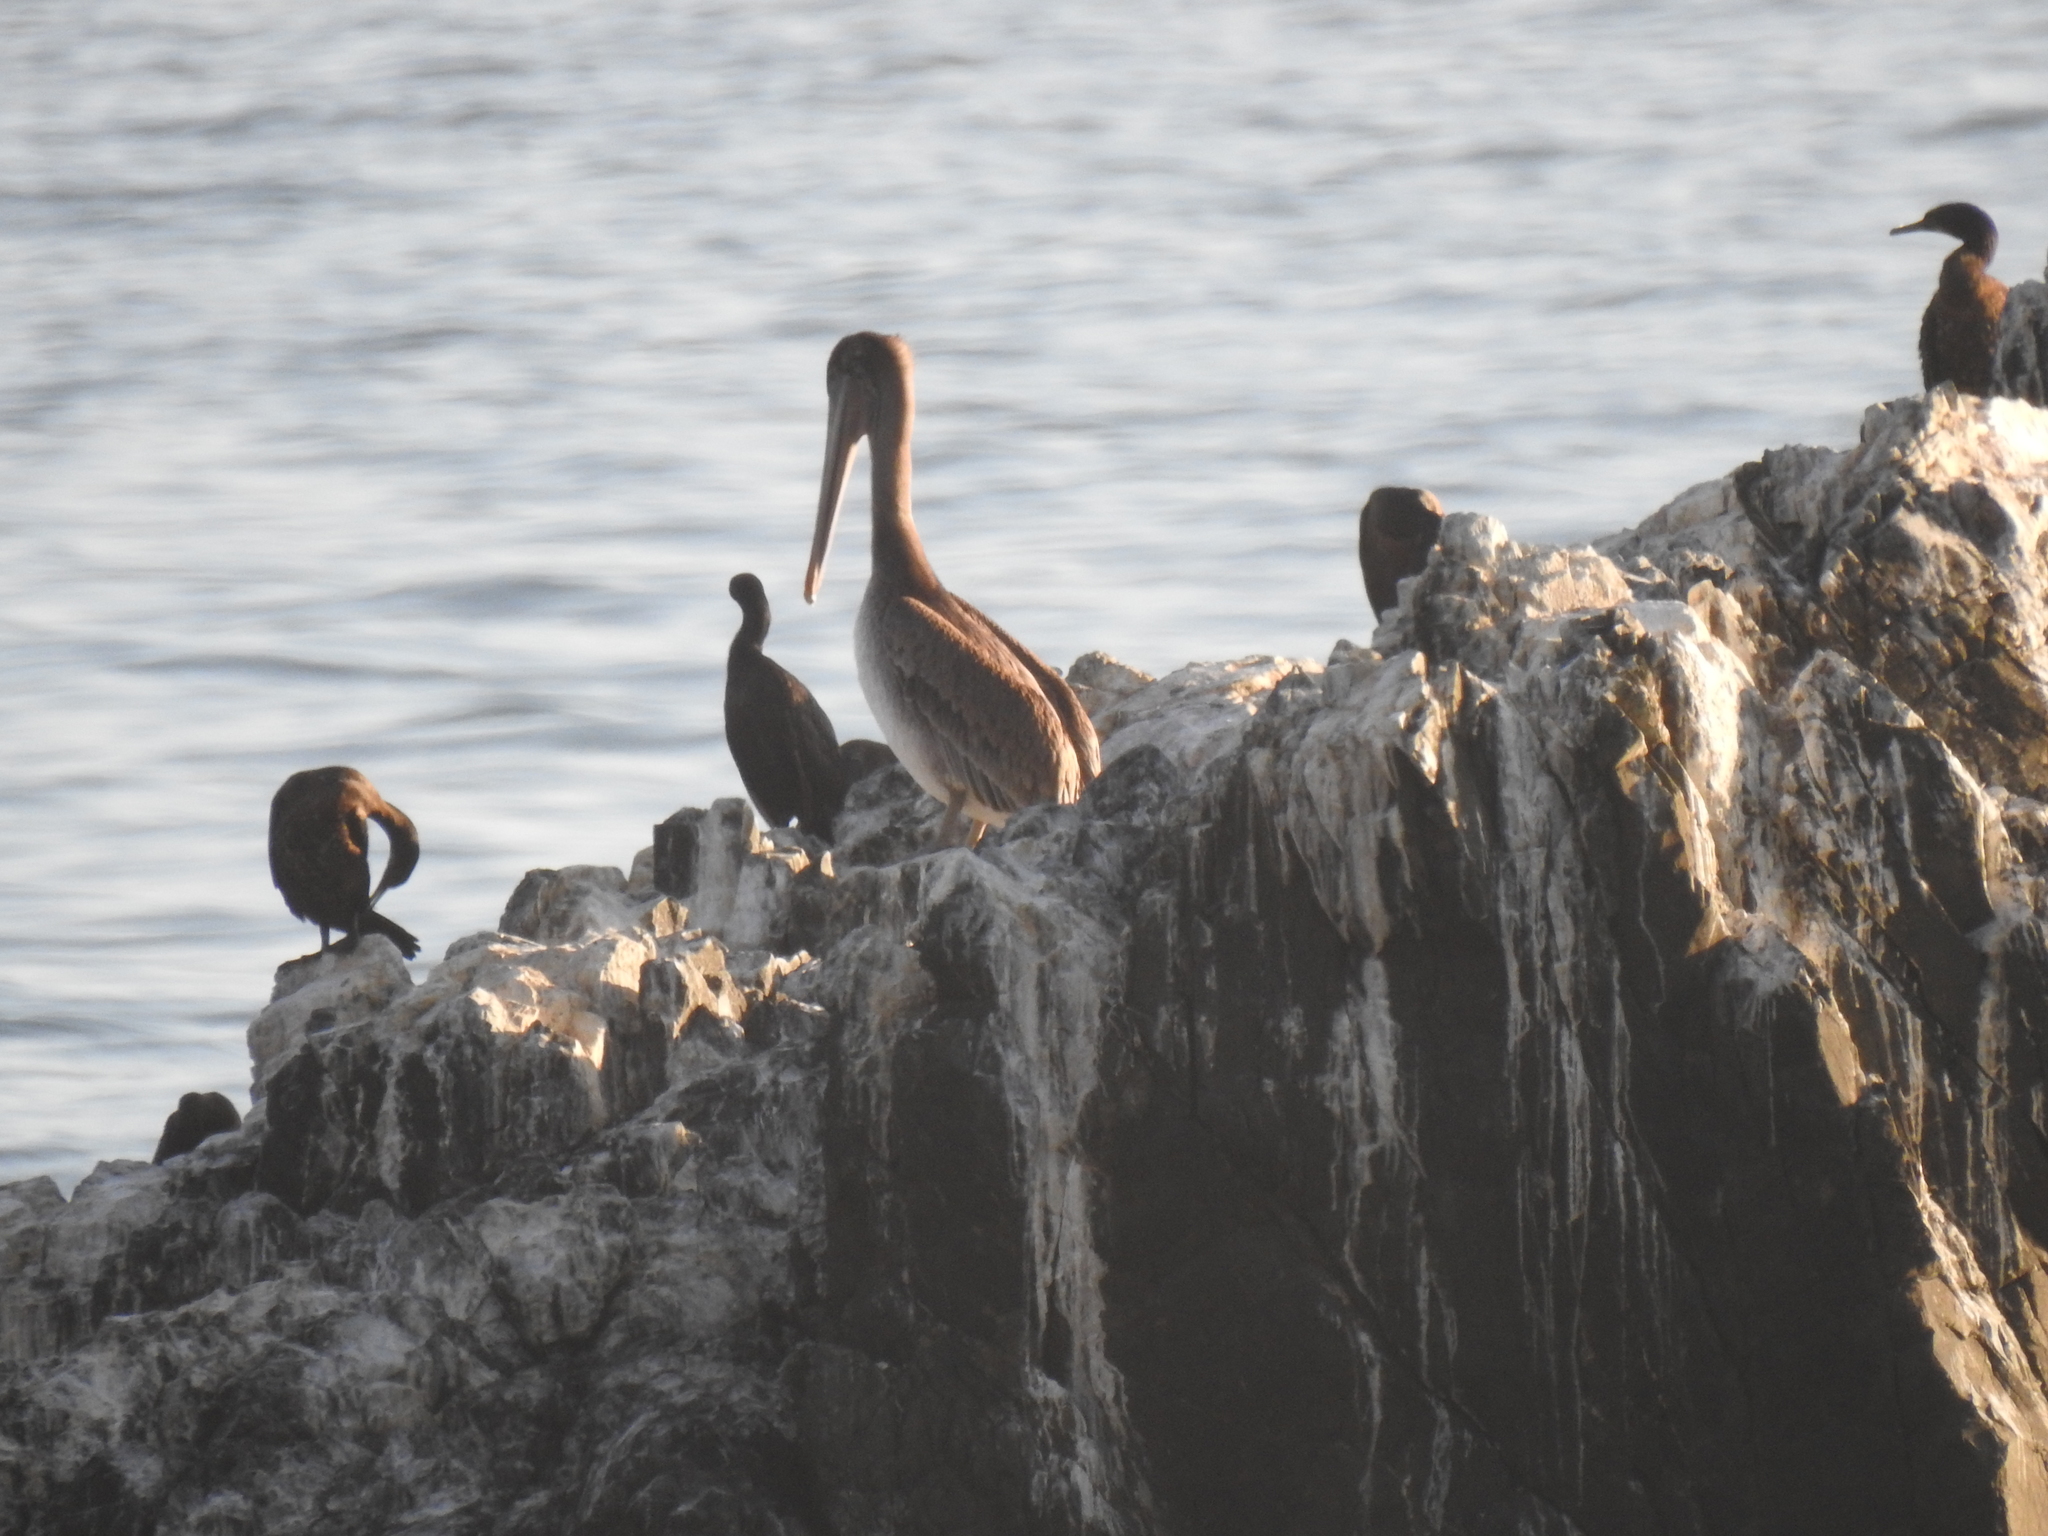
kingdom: Animalia
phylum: Chordata
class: Aves
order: Pelecaniformes
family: Pelecanidae
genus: Pelecanus
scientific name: Pelecanus occidentalis
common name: Brown pelican
